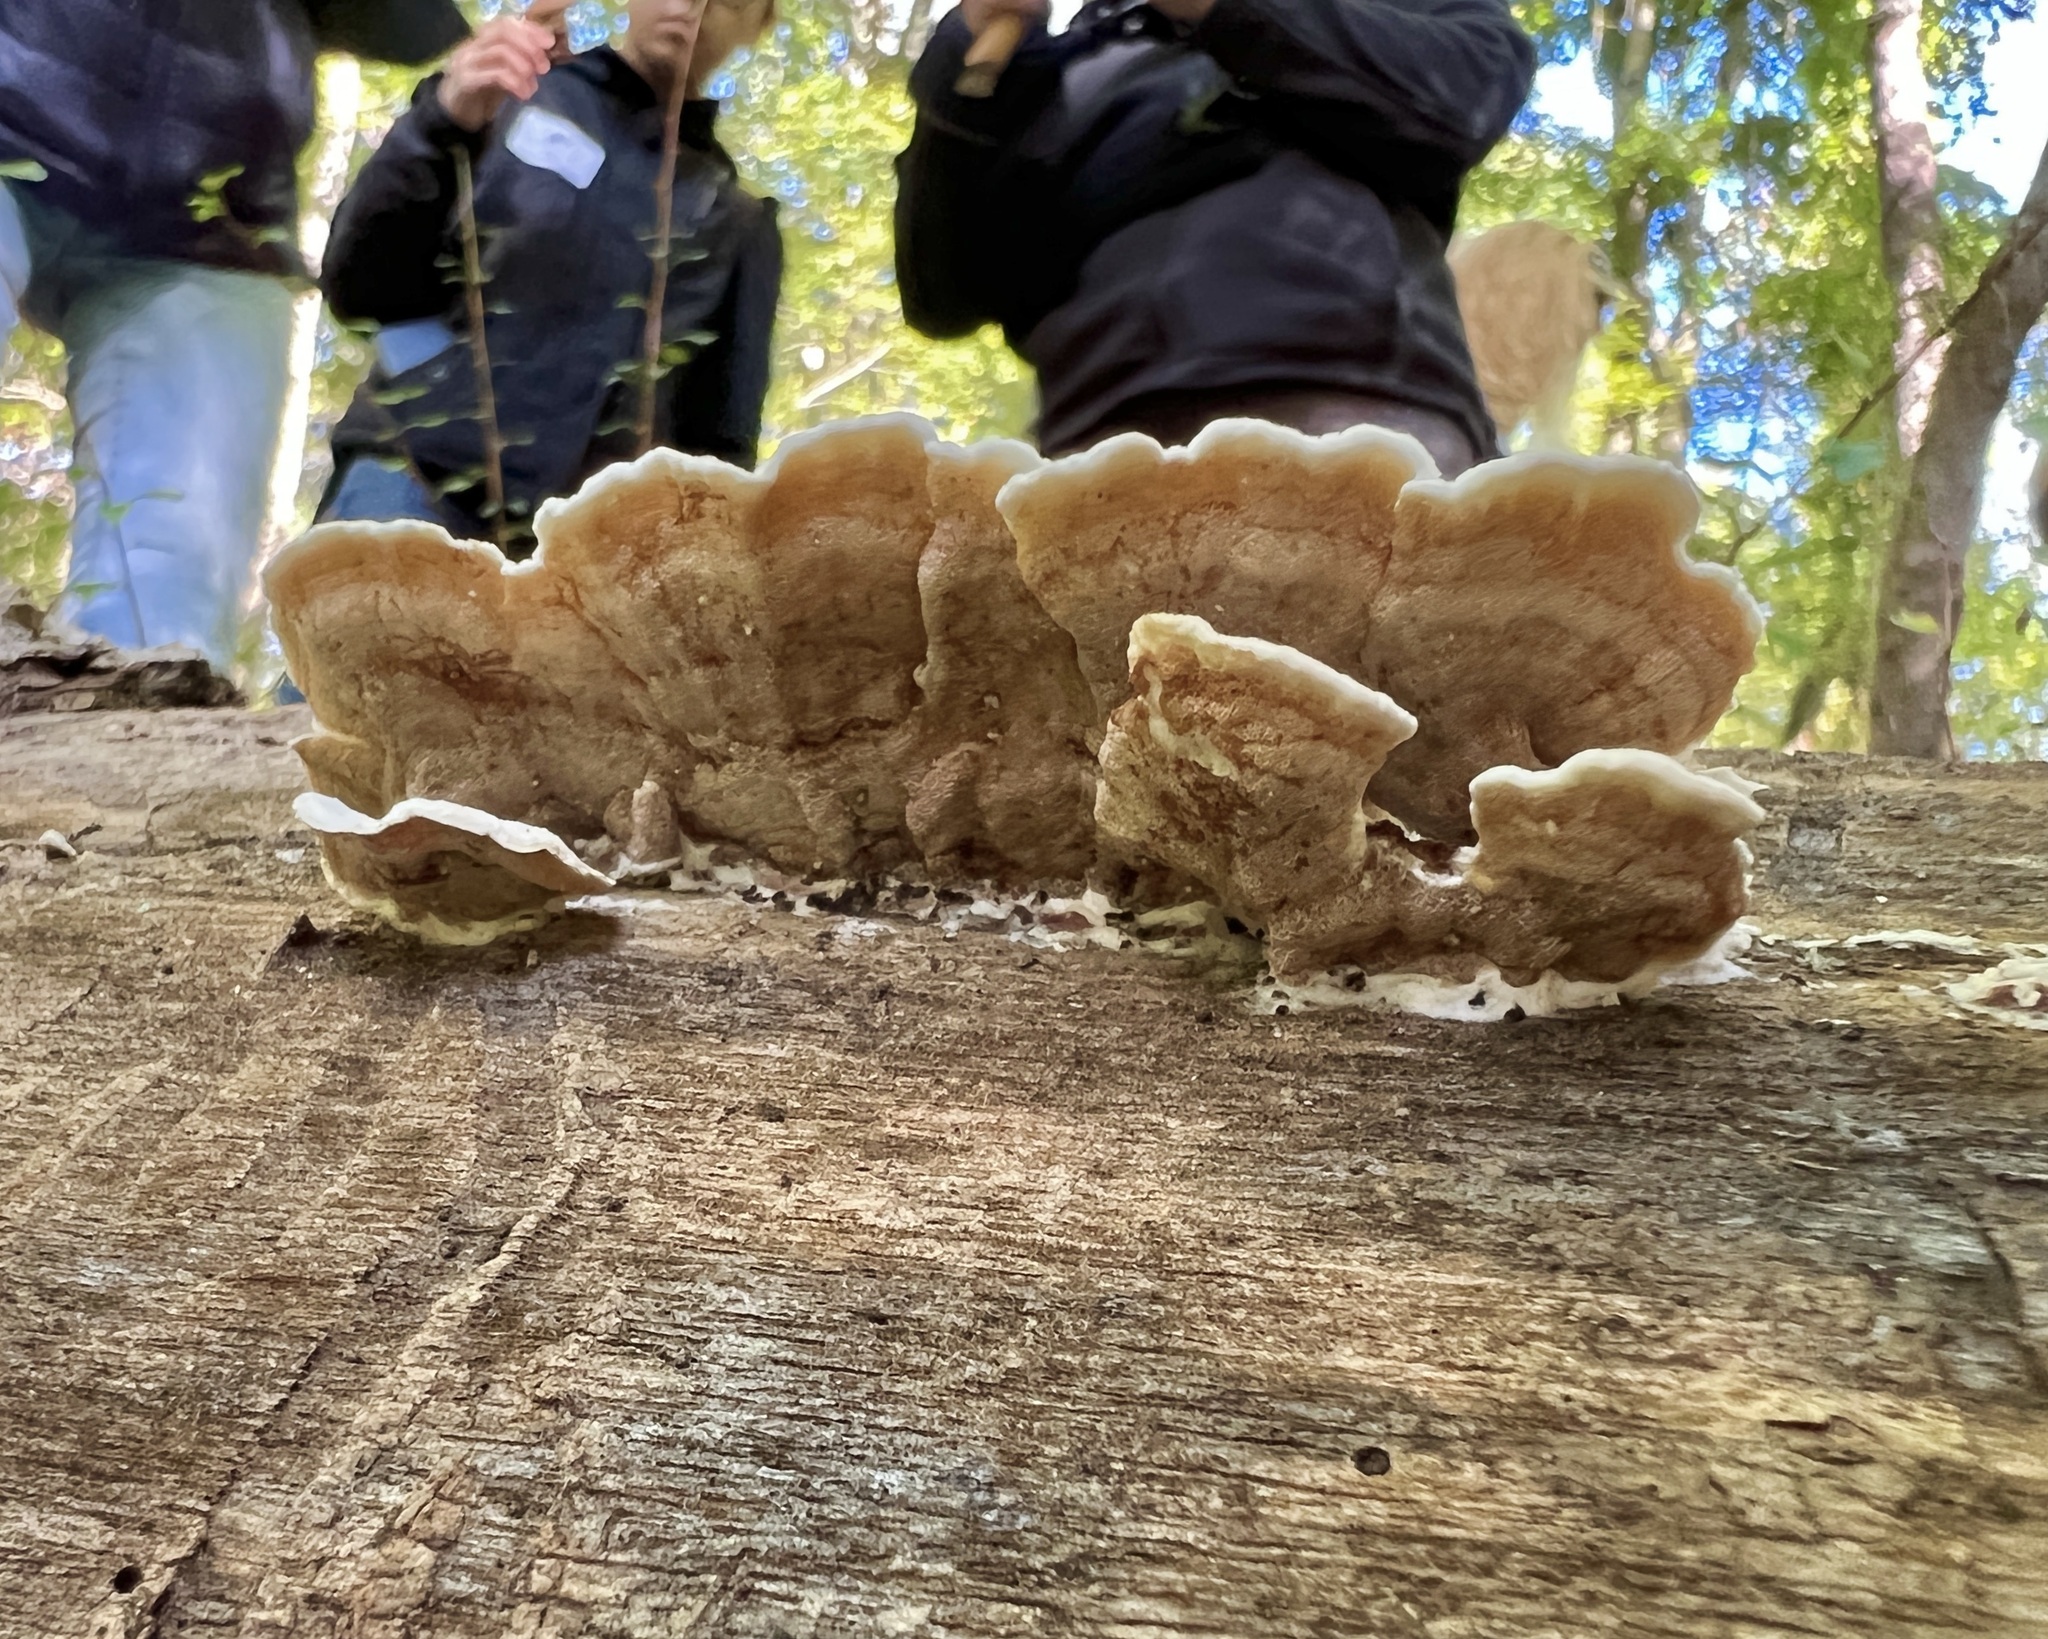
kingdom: Fungi
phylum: Basidiomycota
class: Agaricomycetes
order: Polyporales
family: Irpicaceae
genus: Vitreoporus
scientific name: Vitreoporus dichrous
